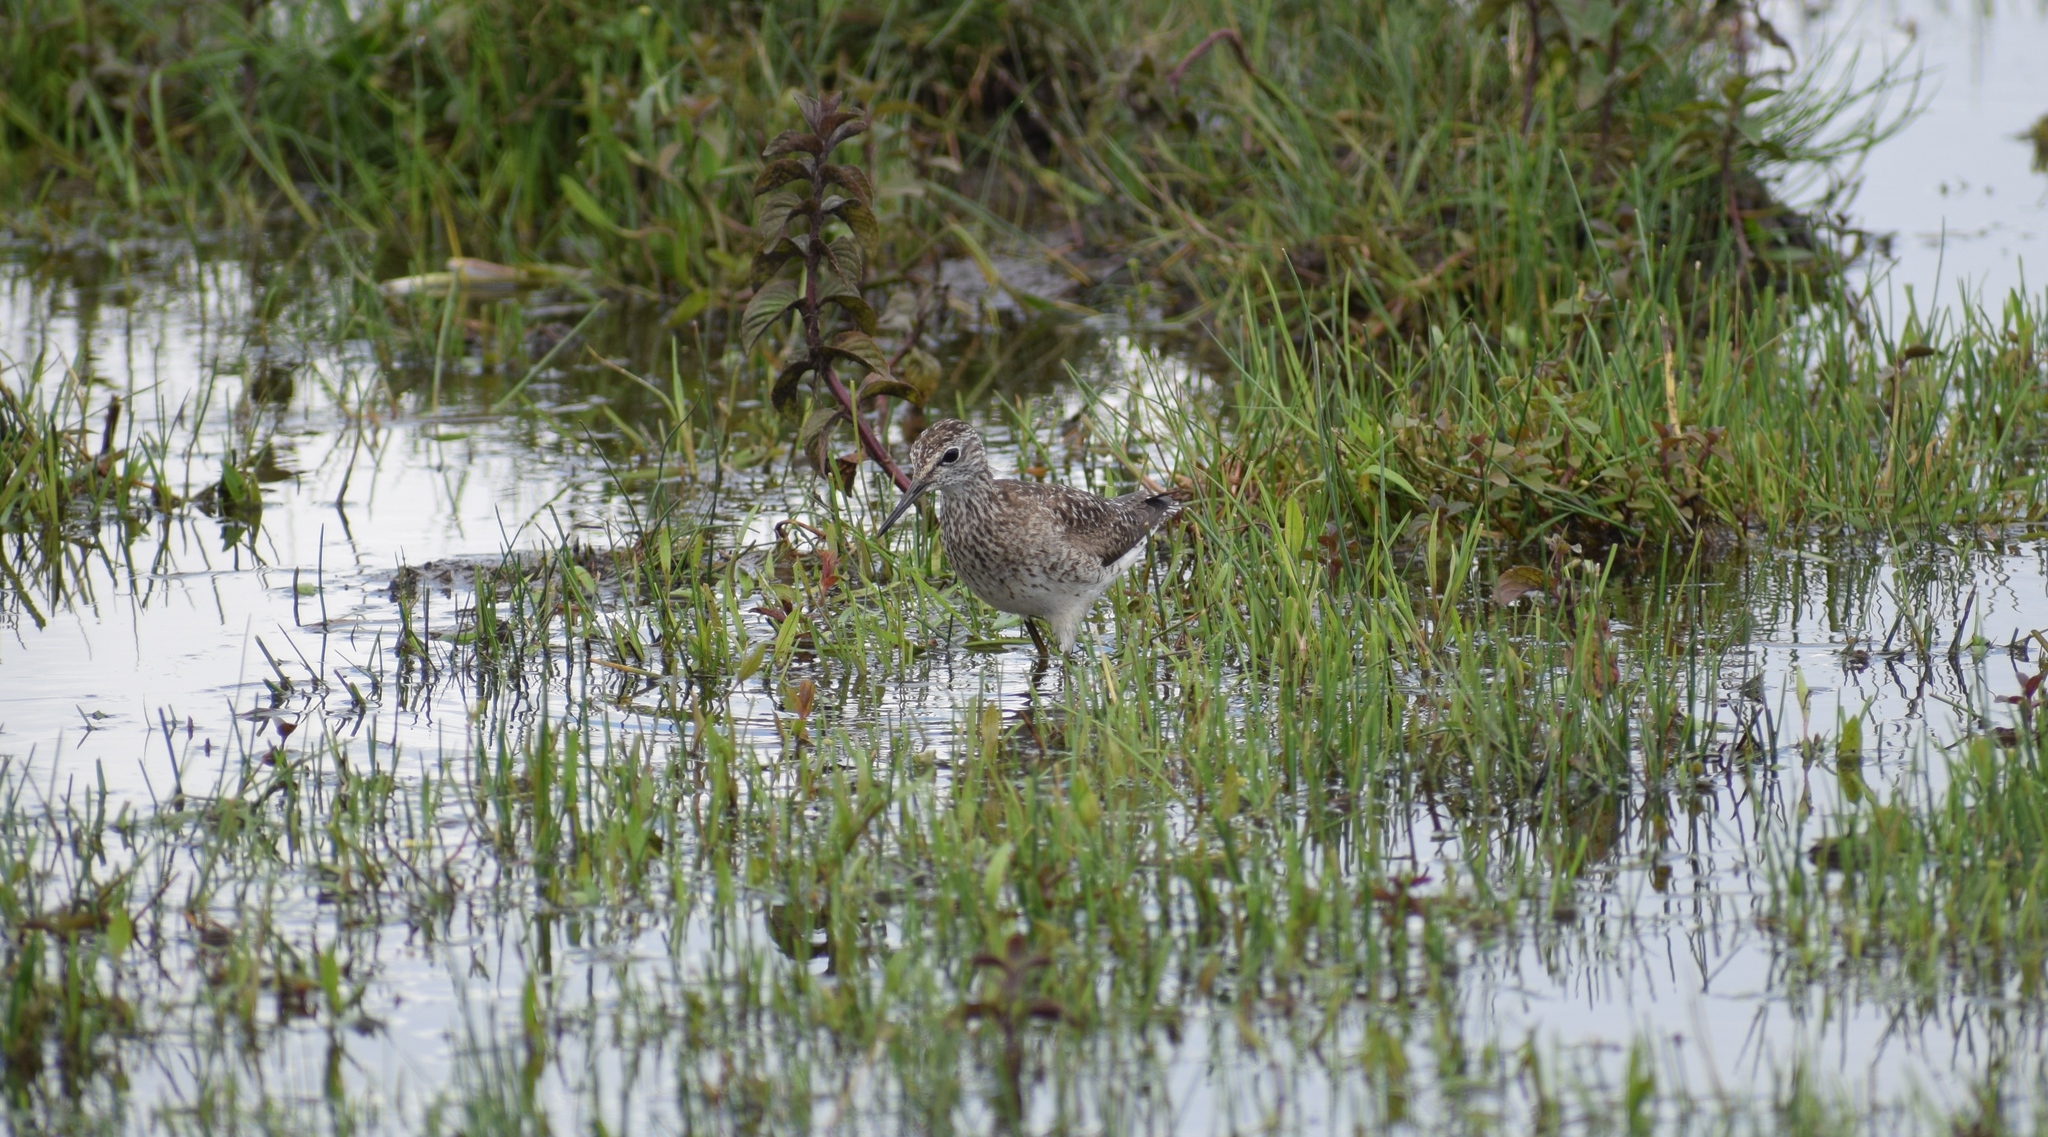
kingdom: Animalia
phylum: Chordata
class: Aves
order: Charadriiformes
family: Scolopacidae
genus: Tringa
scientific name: Tringa glareola
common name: Wood sandpiper
